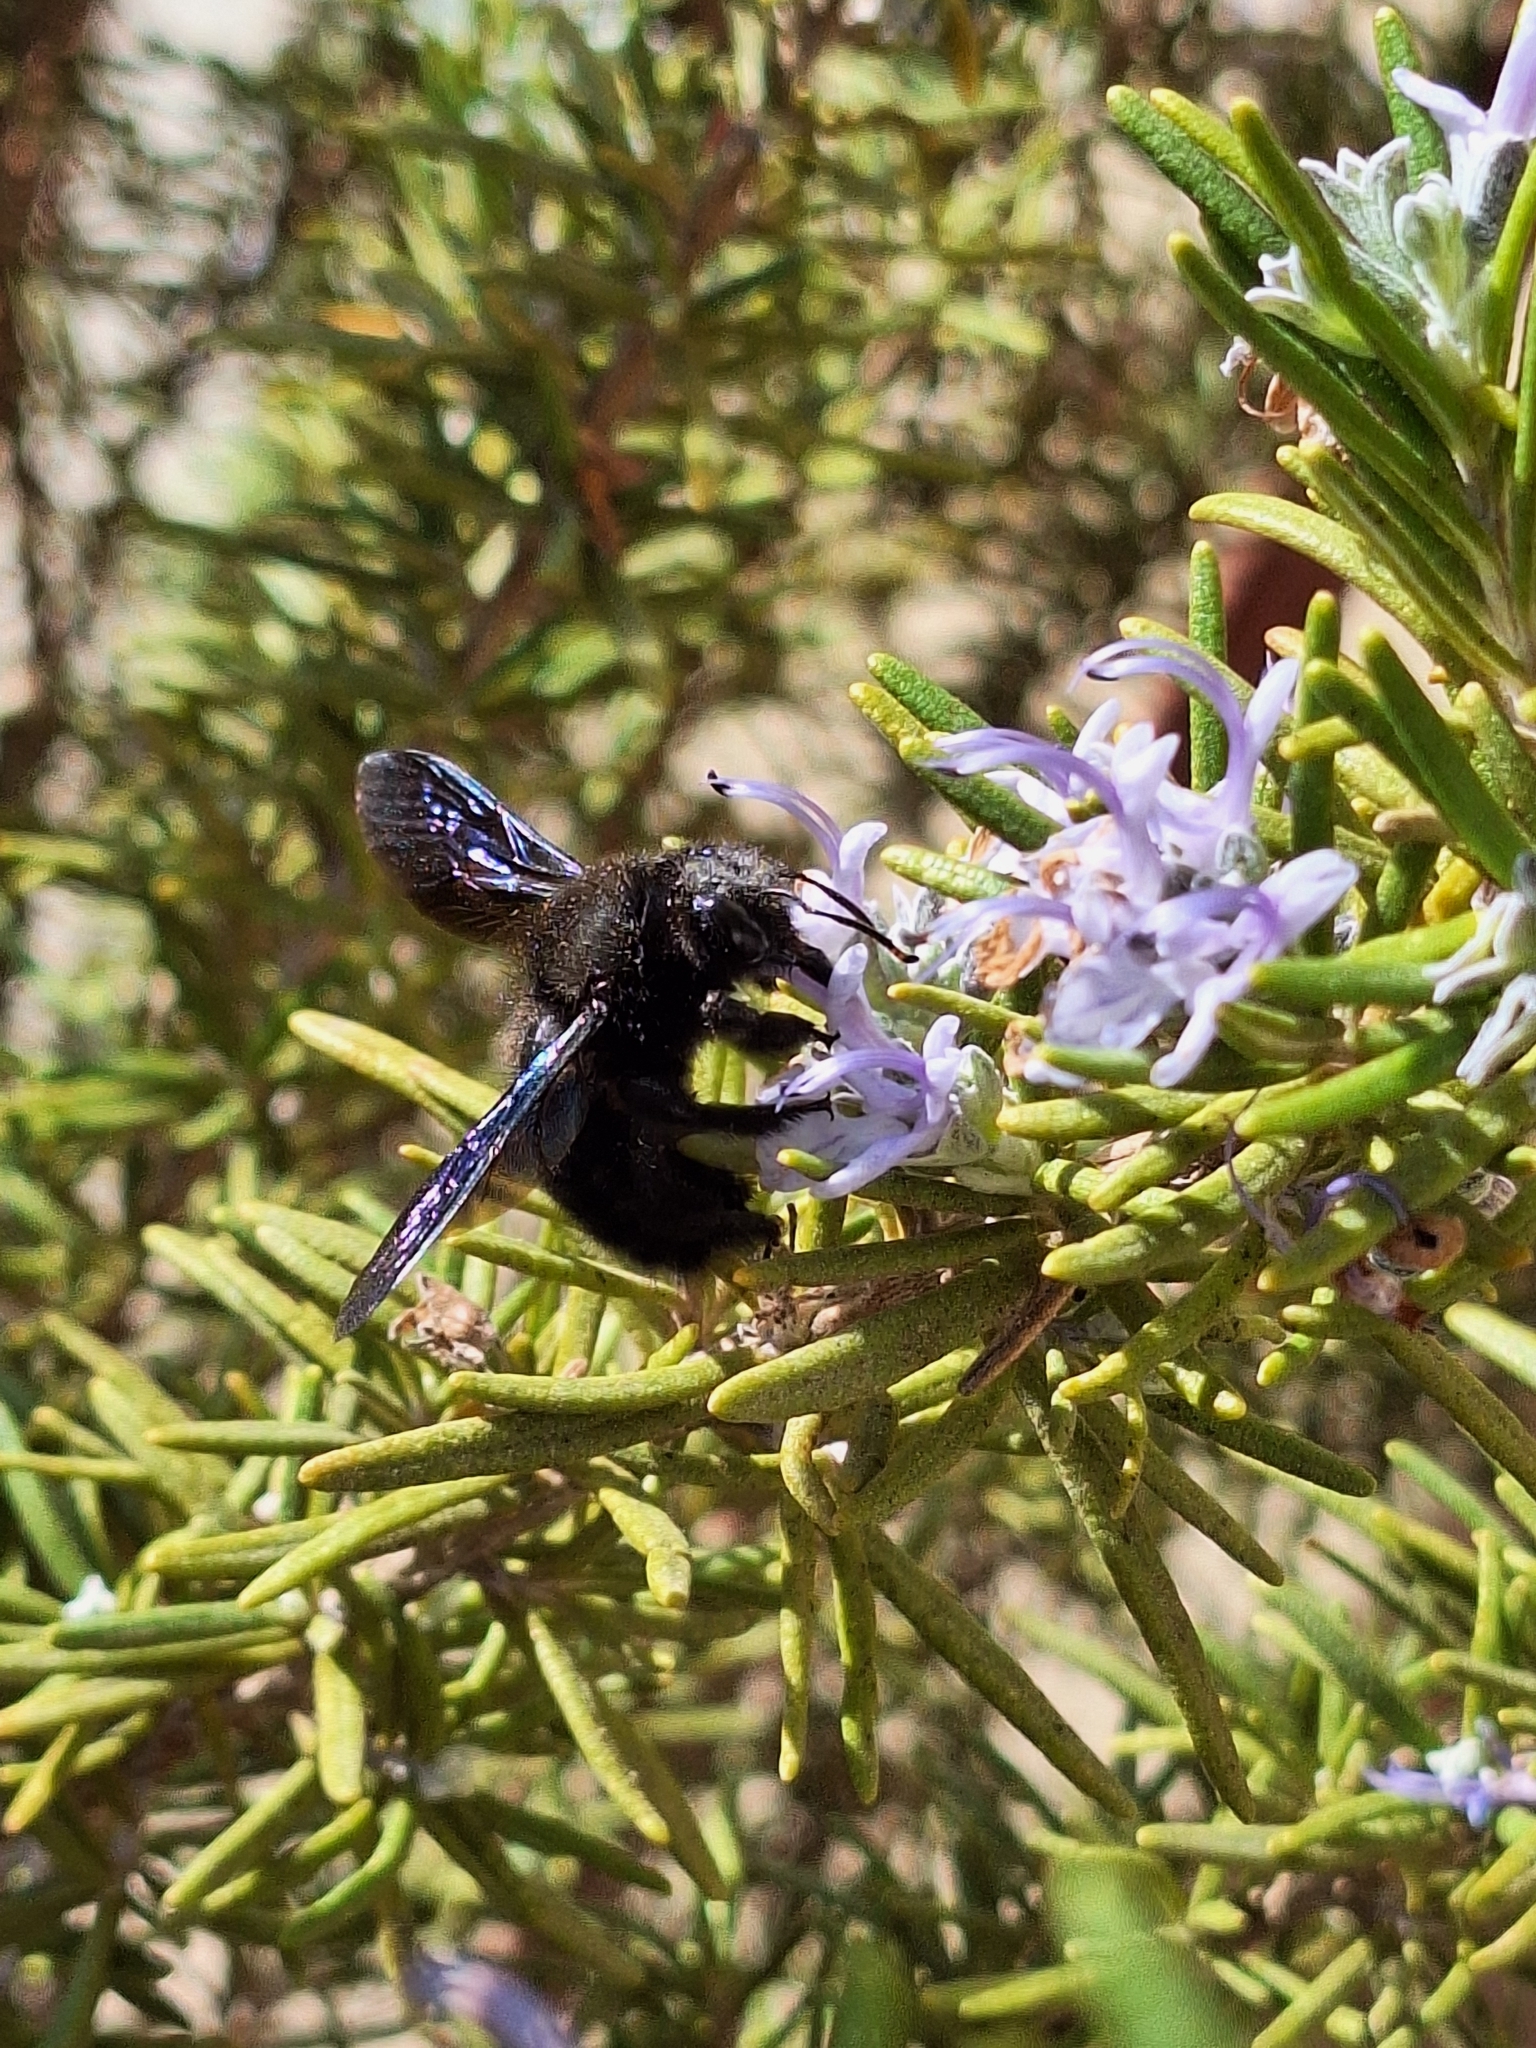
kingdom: Animalia
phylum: Arthropoda
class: Insecta
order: Hymenoptera
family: Apidae
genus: Xylocopa
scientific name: Xylocopa violacea
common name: Violet carpenter bee
